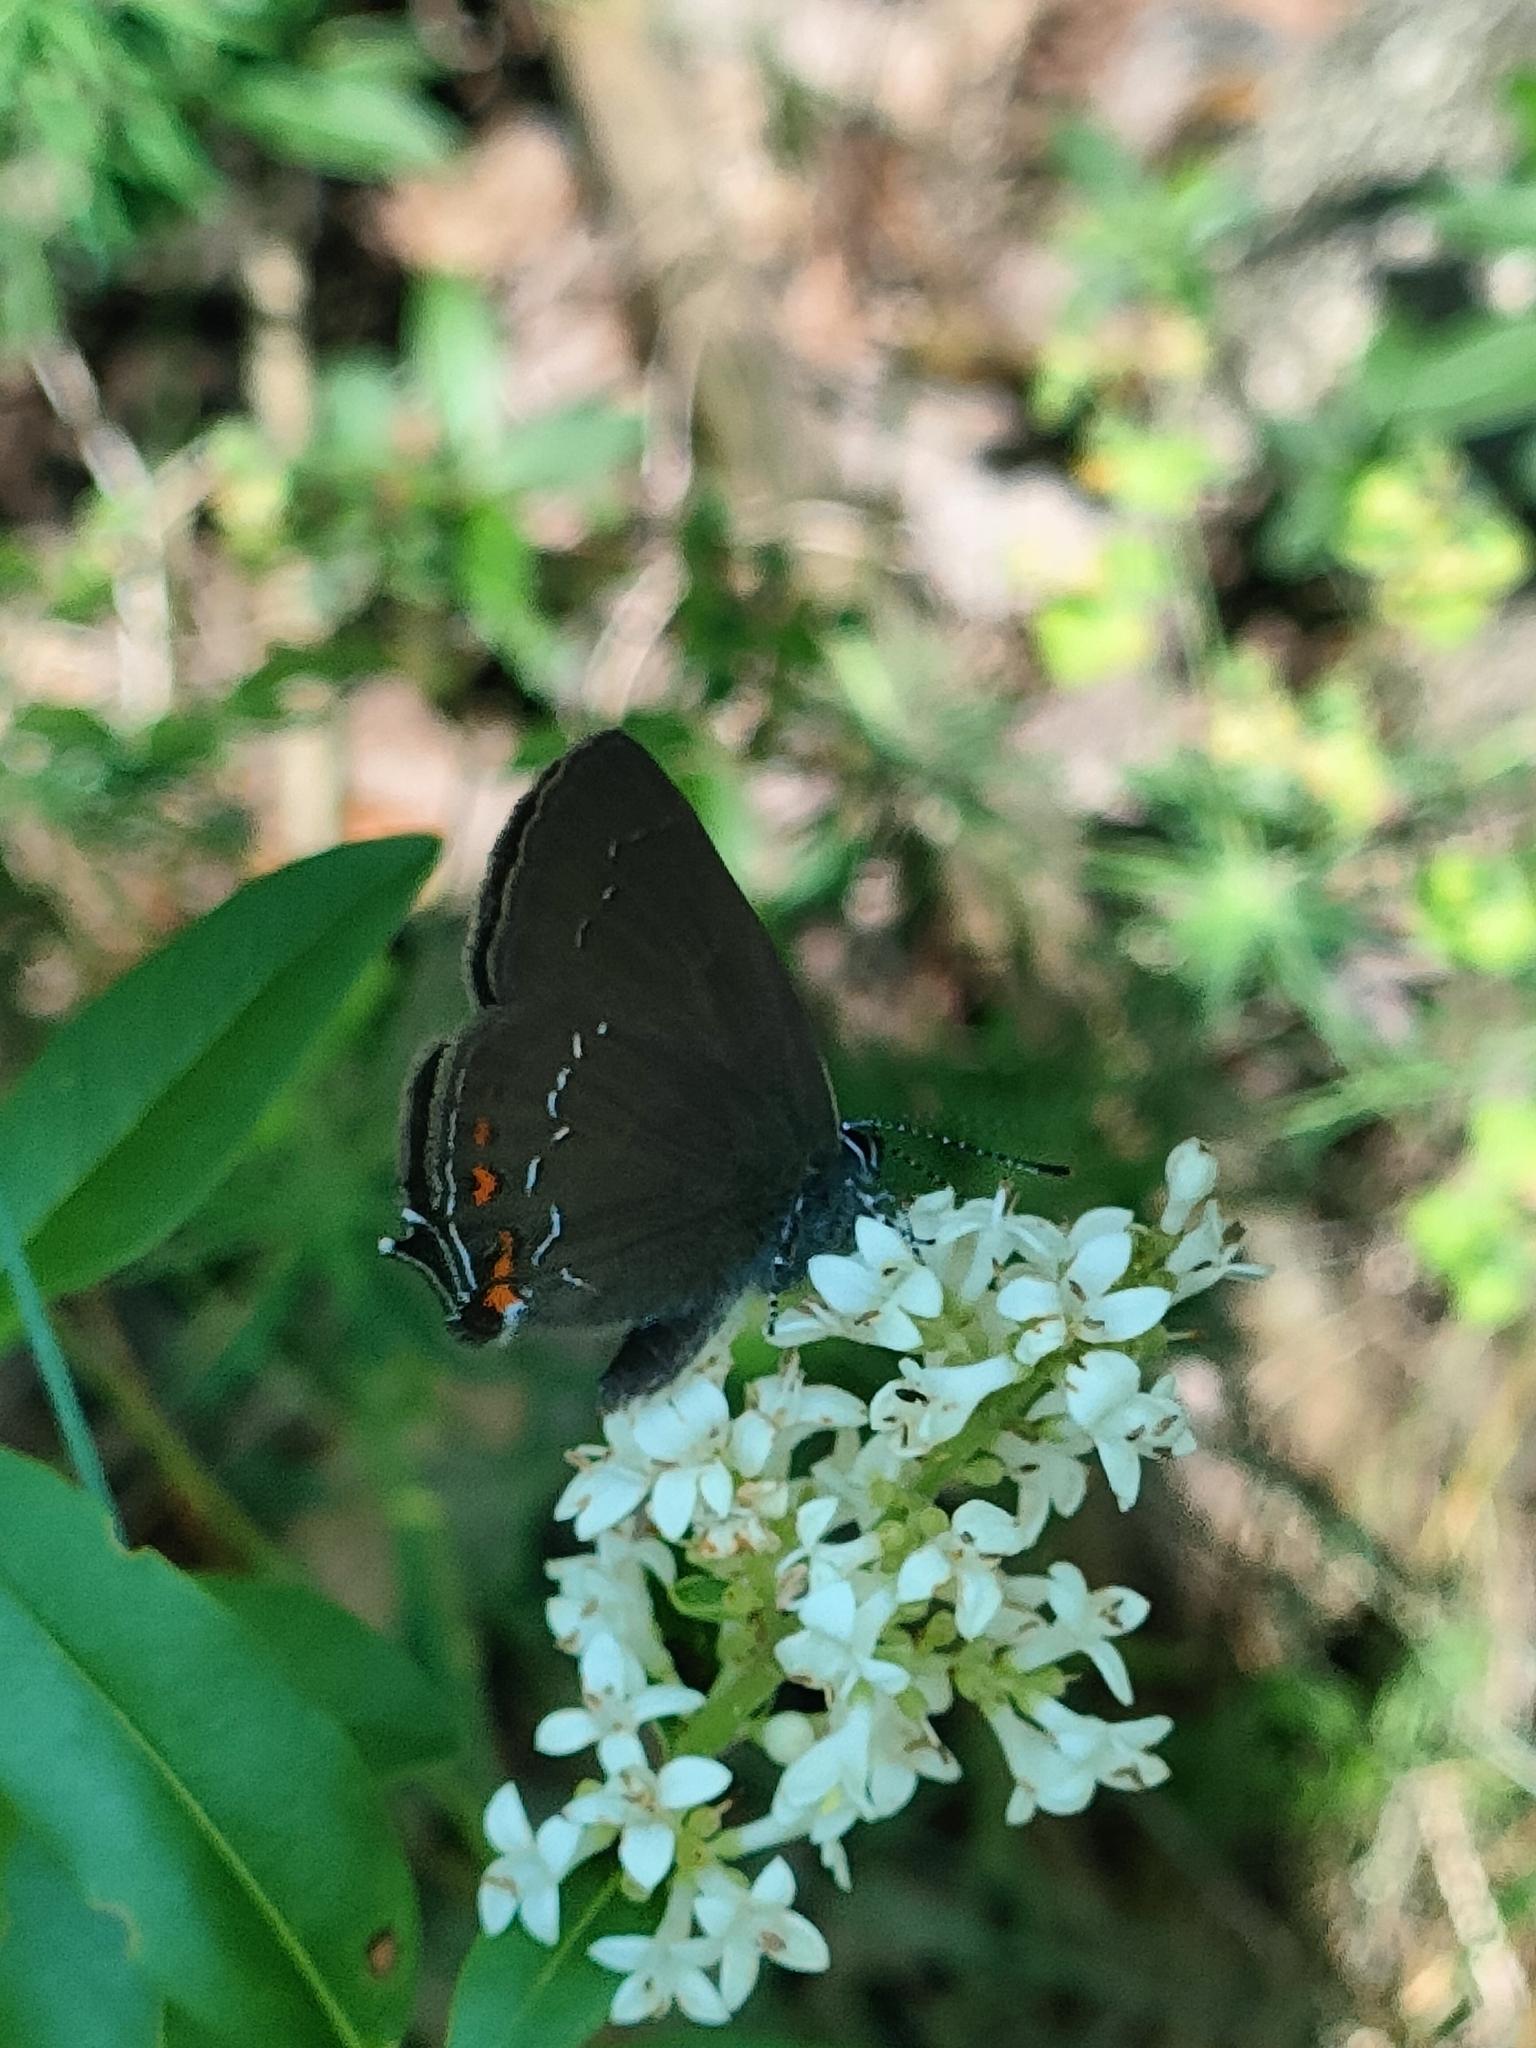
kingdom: Animalia
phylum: Arthropoda
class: Insecta
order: Lepidoptera
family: Lycaenidae
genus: Nordmannia
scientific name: Nordmannia ilicis
